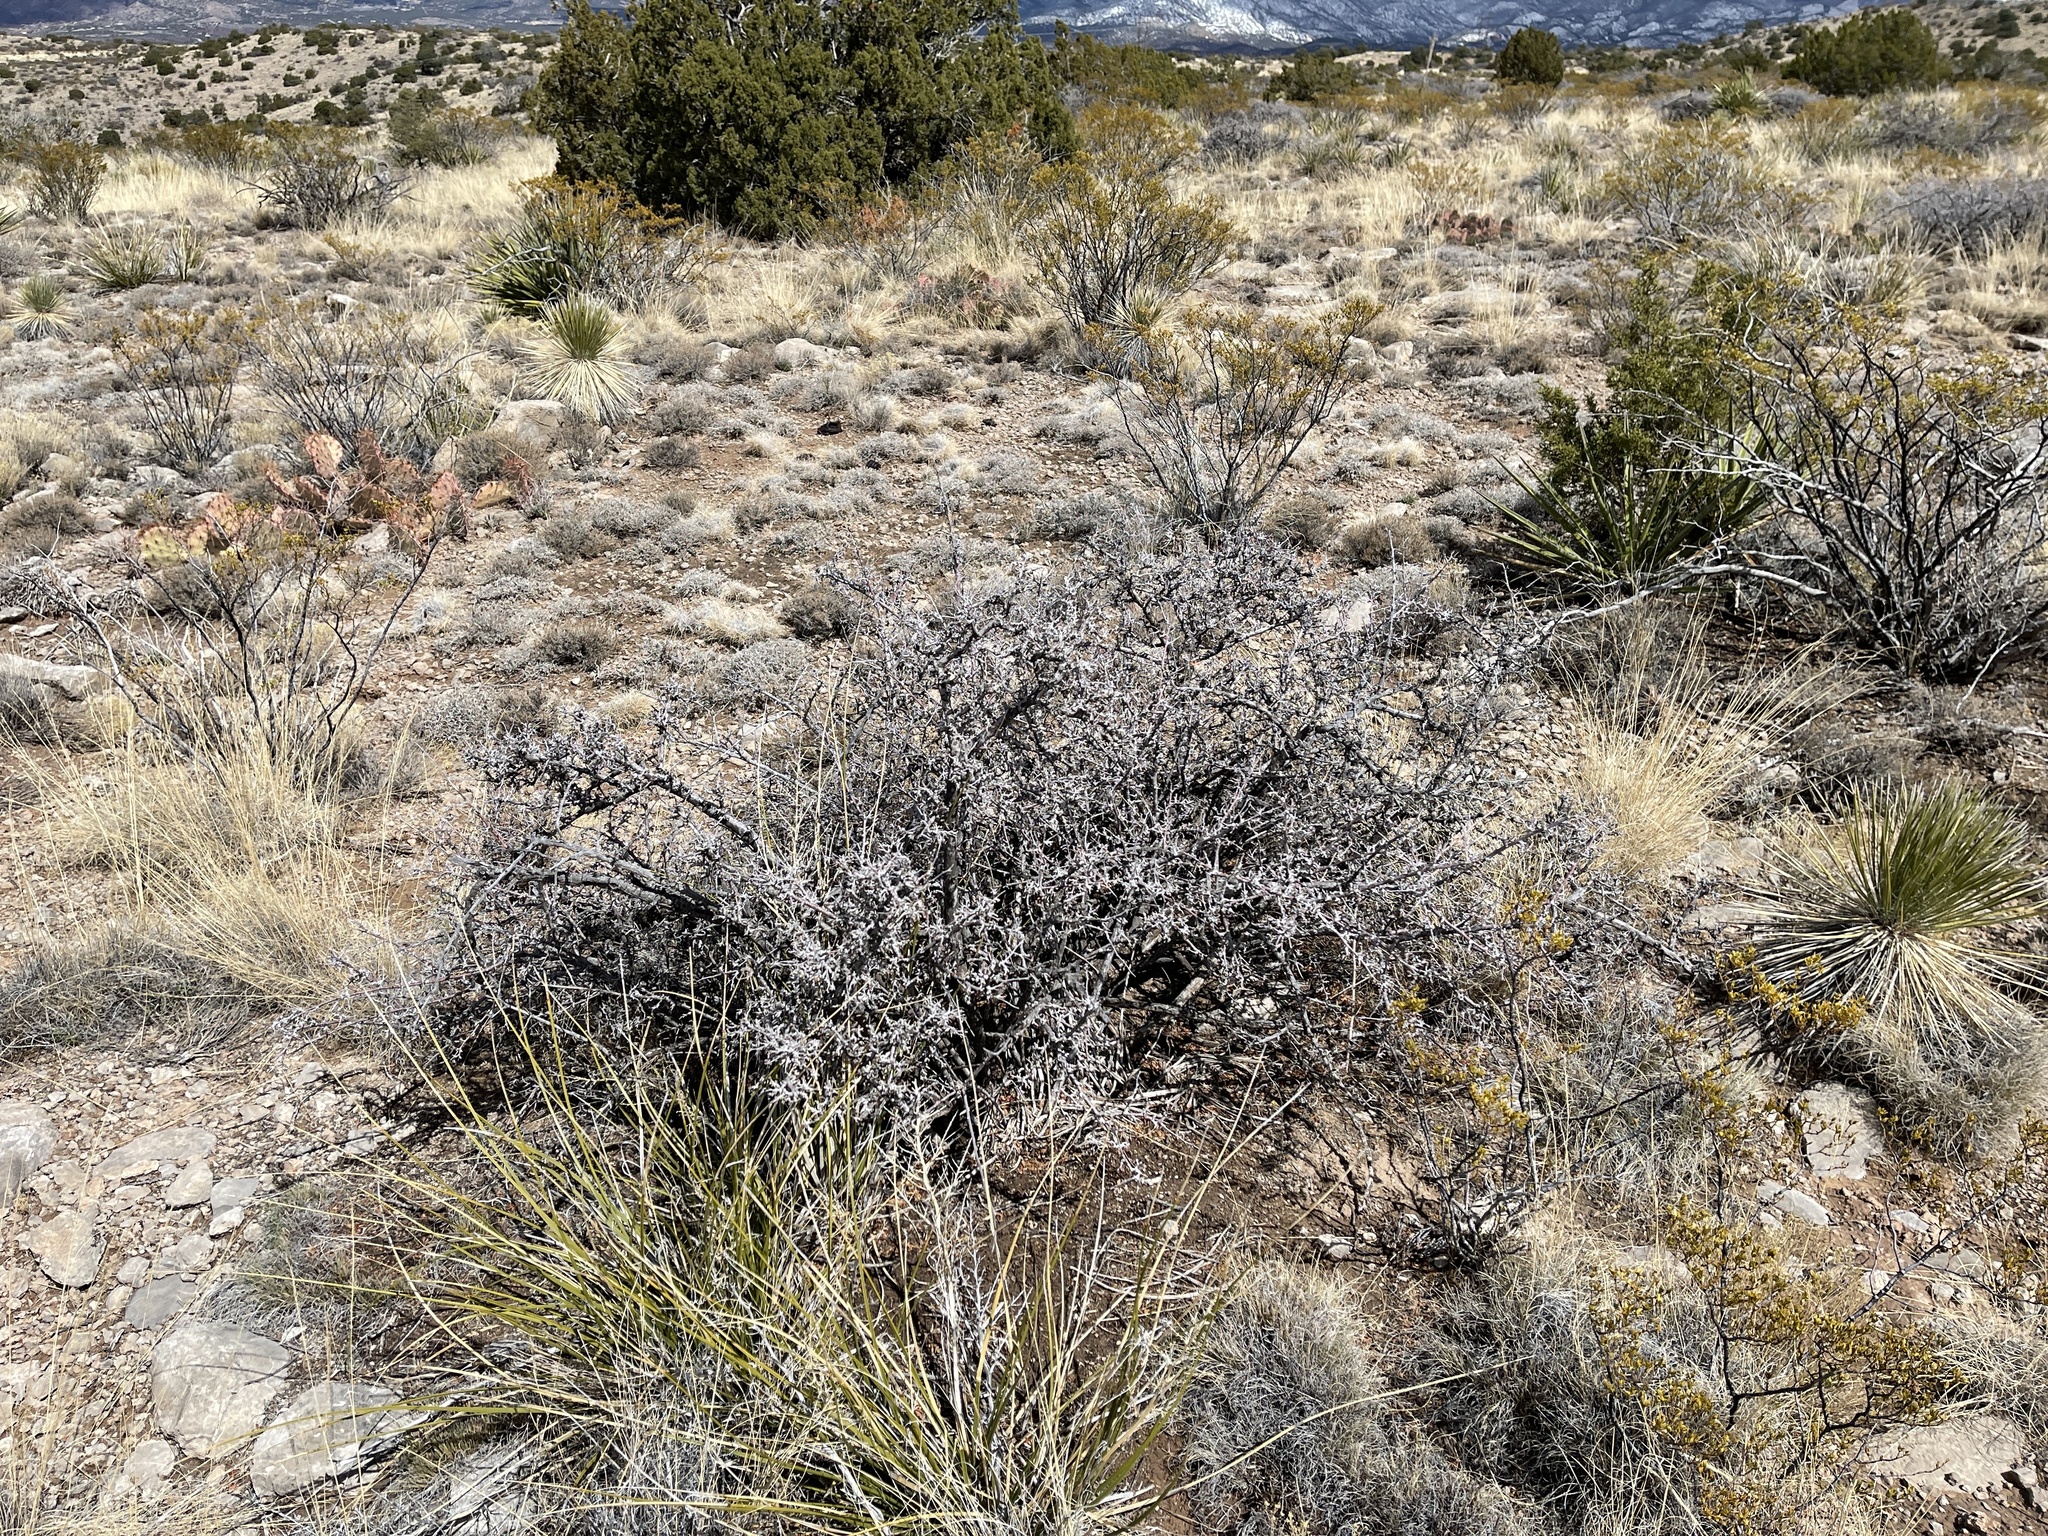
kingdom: Plantae
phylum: Tracheophyta
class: Magnoliopsida
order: Sapindales
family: Anacardiaceae
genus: Rhus
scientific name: Rhus microphylla
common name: Desert sumac
